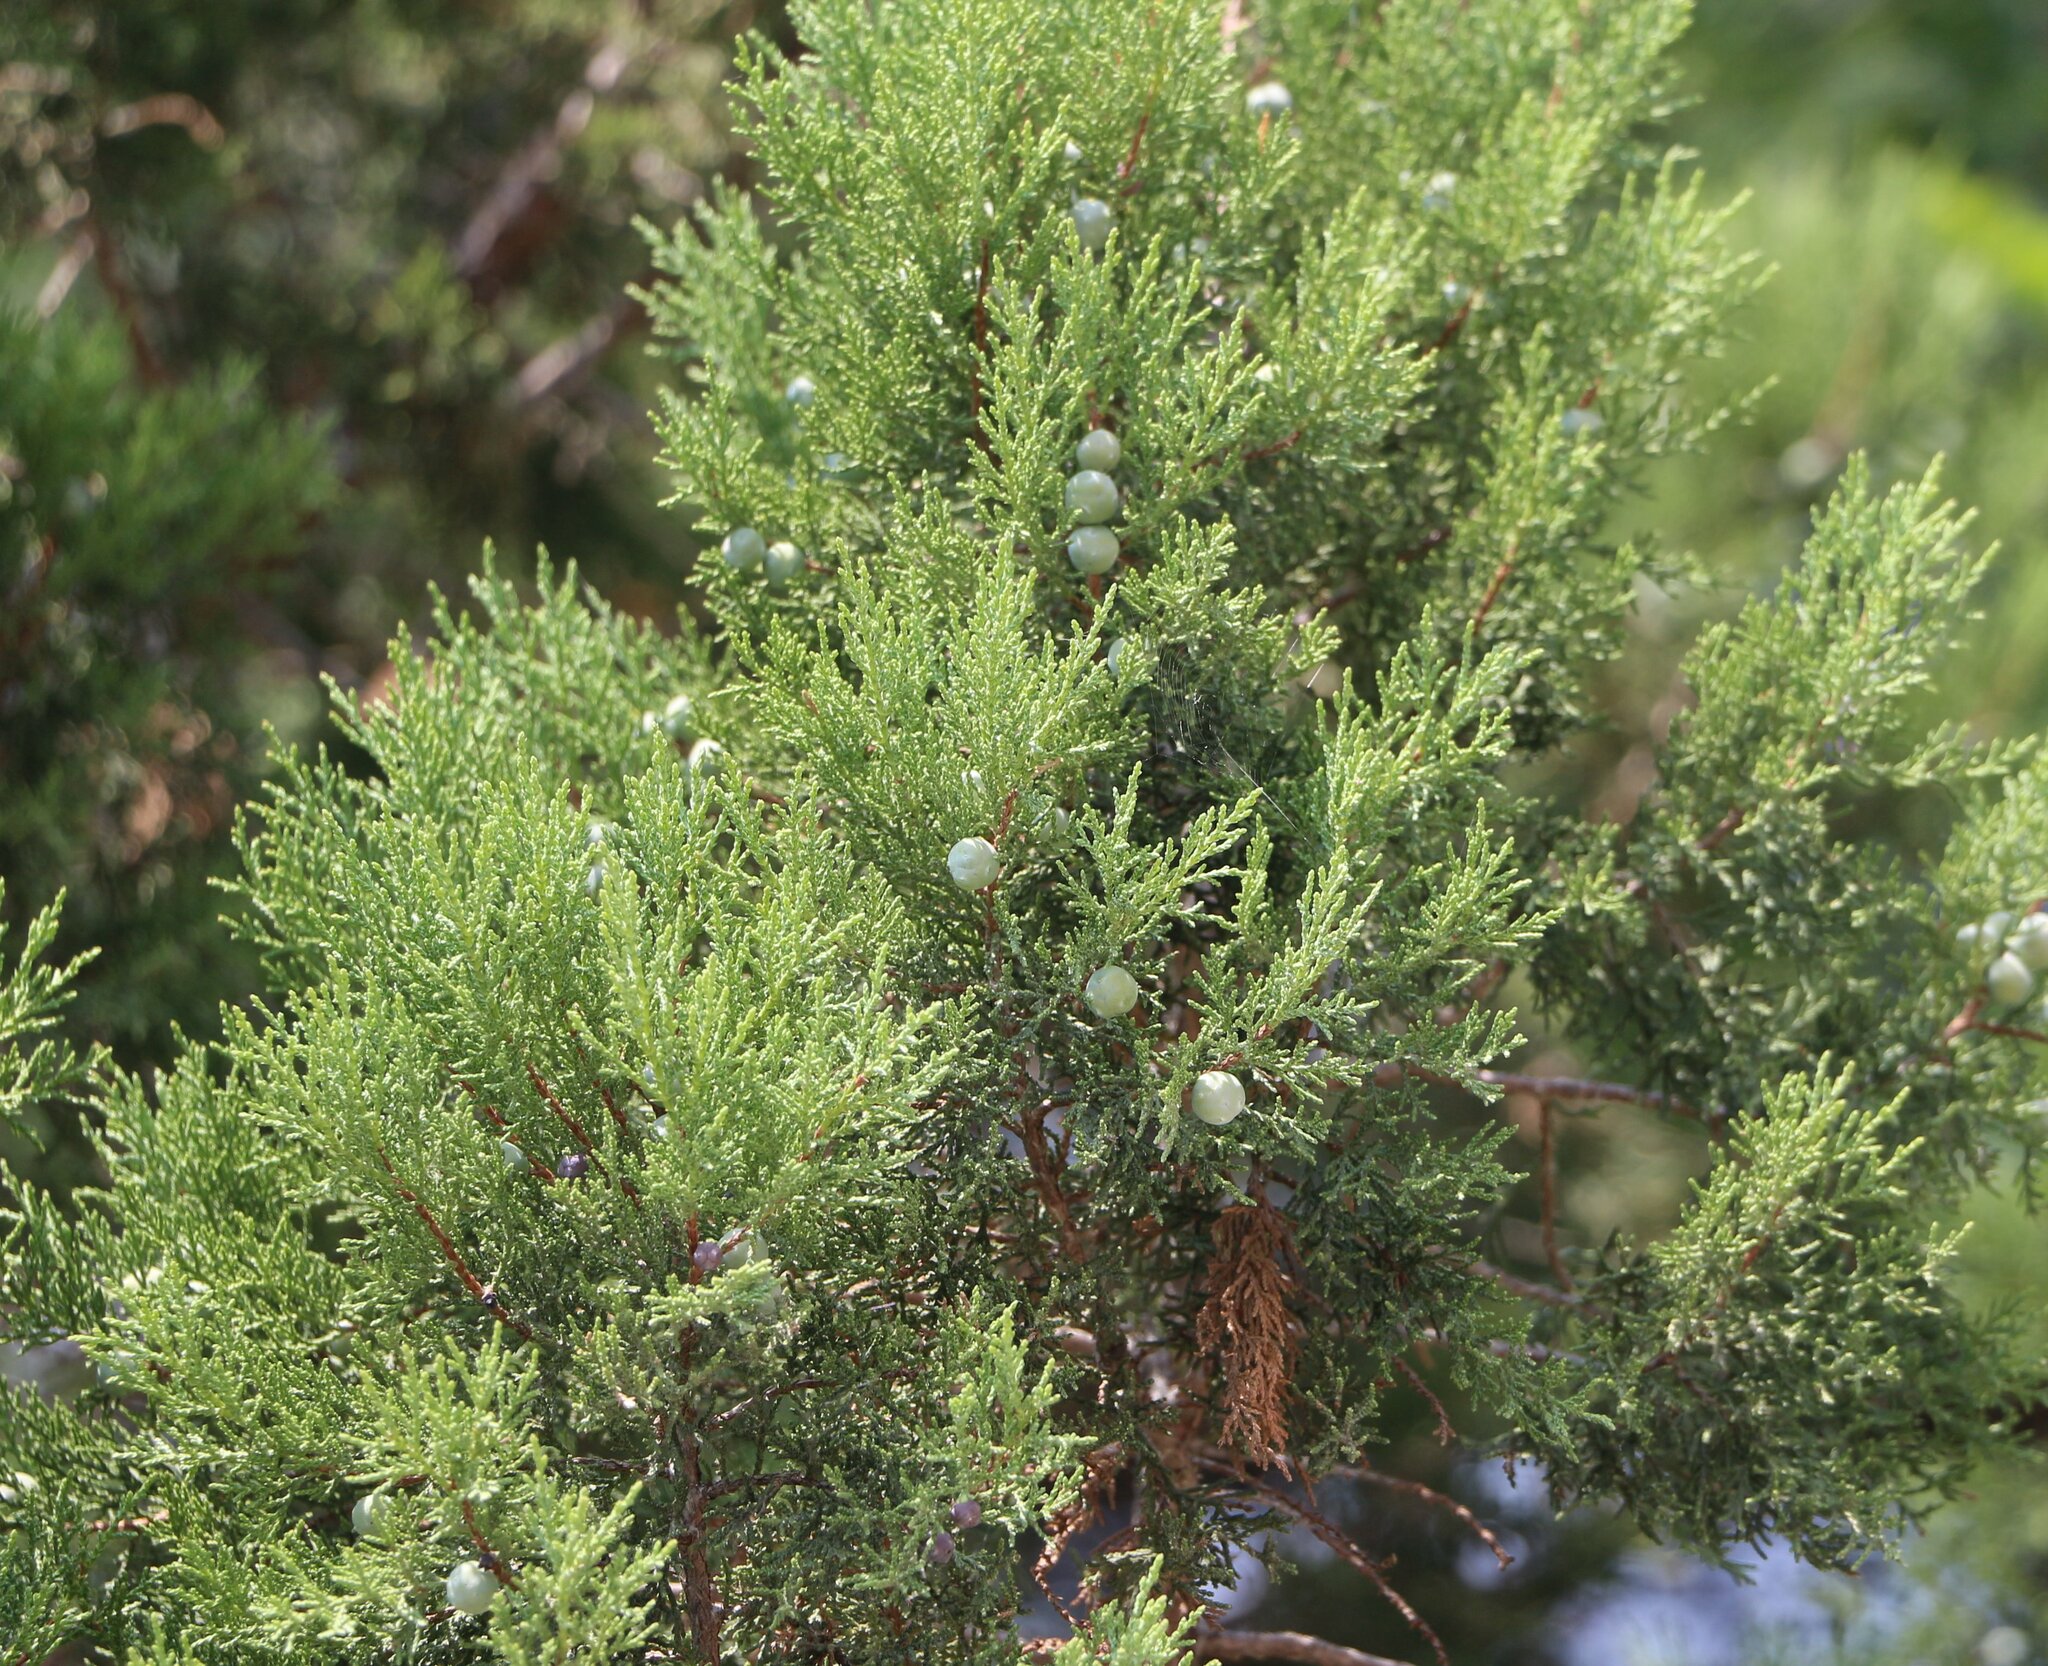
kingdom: Plantae
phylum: Tracheophyta
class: Pinopsida
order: Pinales
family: Cupressaceae
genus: Juniperus
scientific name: Juniperus excelsa
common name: Crimean juniper
